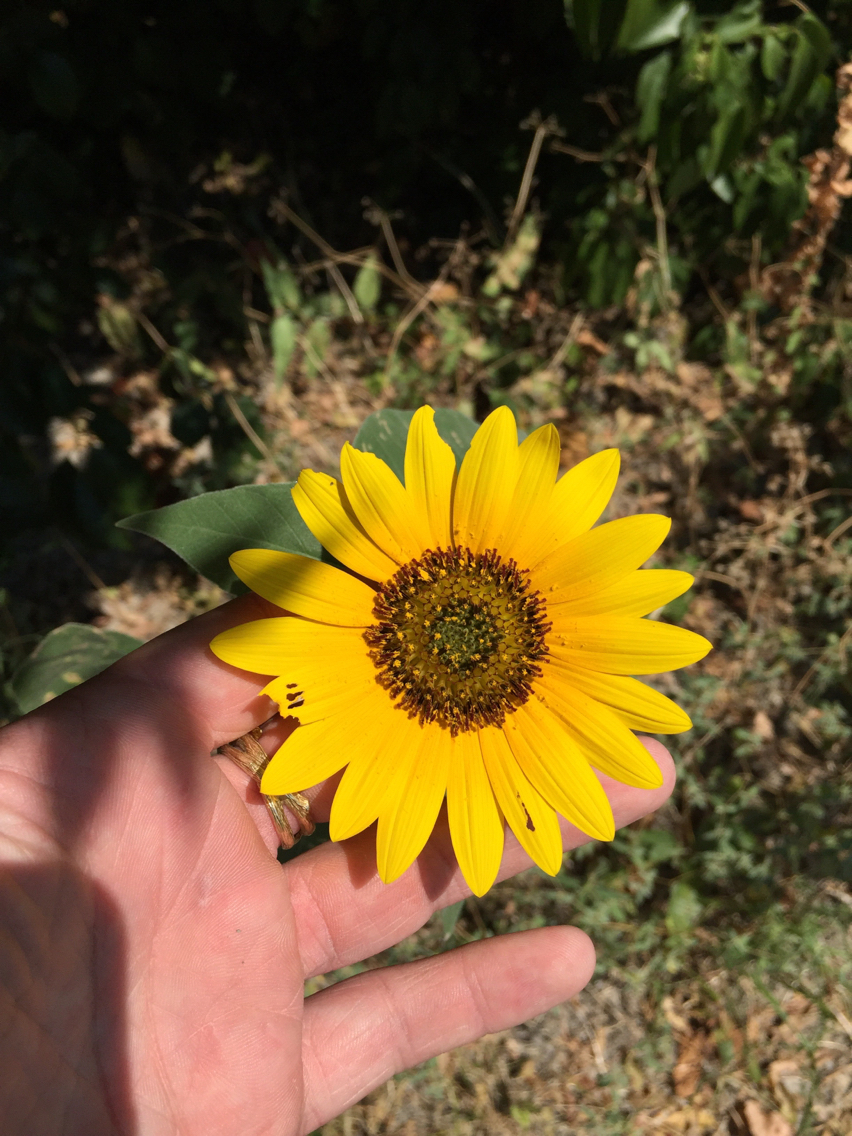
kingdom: Plantae
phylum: Tracheophyta
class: Magnoliopsida
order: Asterales
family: Asteraceae
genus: Helianthus
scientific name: Helianthus annuus
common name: Sunflower
